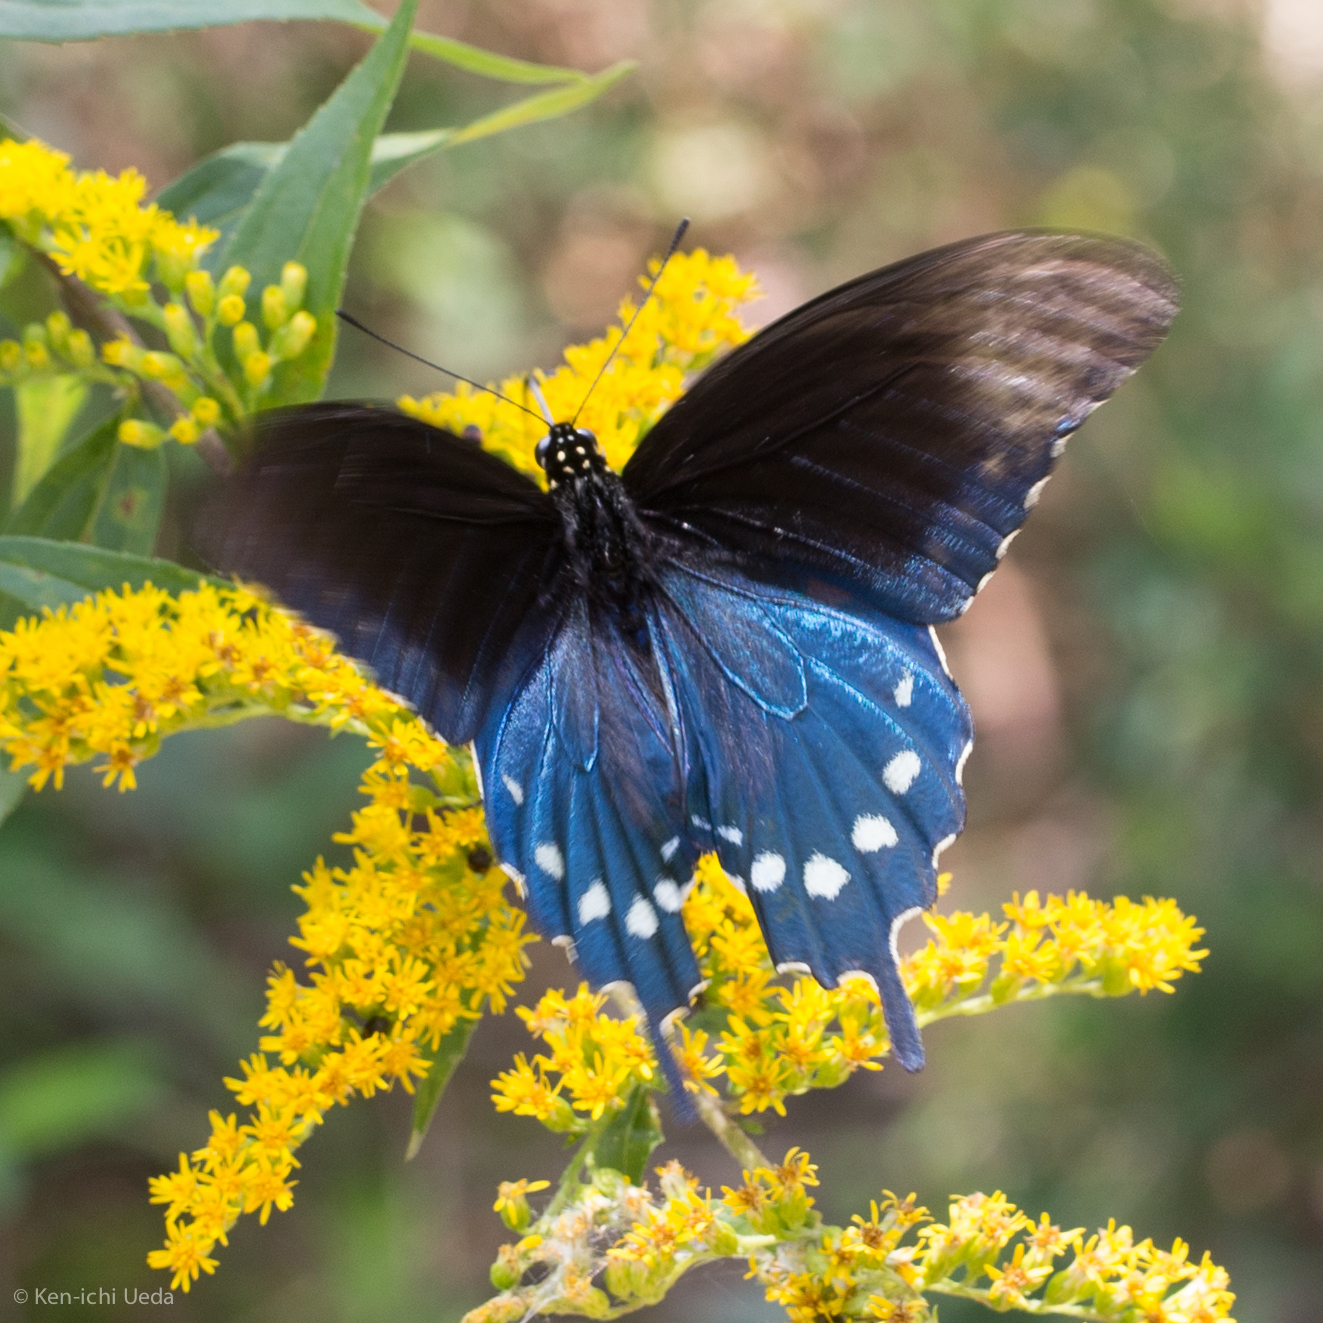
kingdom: Animalia
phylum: Arthropoda
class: Insecta
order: Lepidoptera
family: Papilionidae
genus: Battus
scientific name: Battus philenor
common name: Pipevine swallowtail
